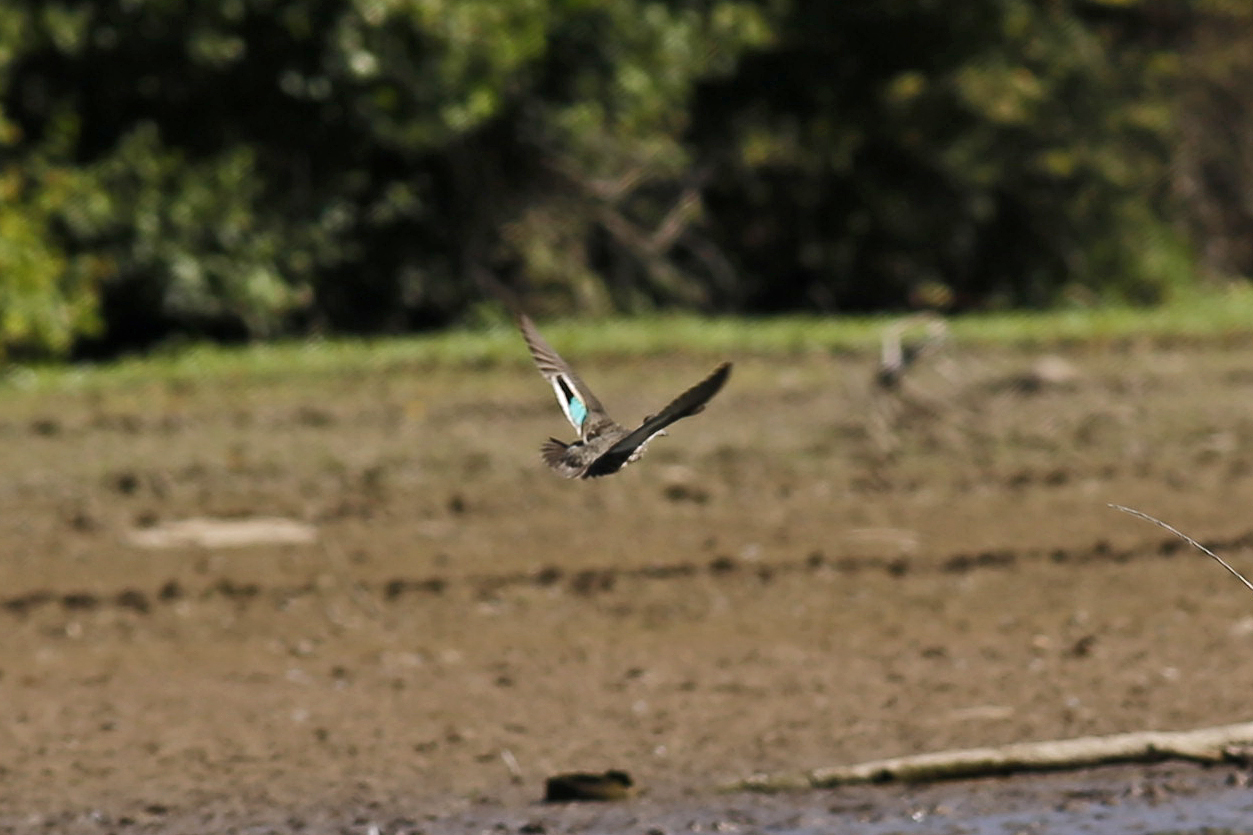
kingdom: Animalia
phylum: Chordata
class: Aves
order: Anseriformes
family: Anatidae
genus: Anas
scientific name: Anas crecca
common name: Eurasian teal
